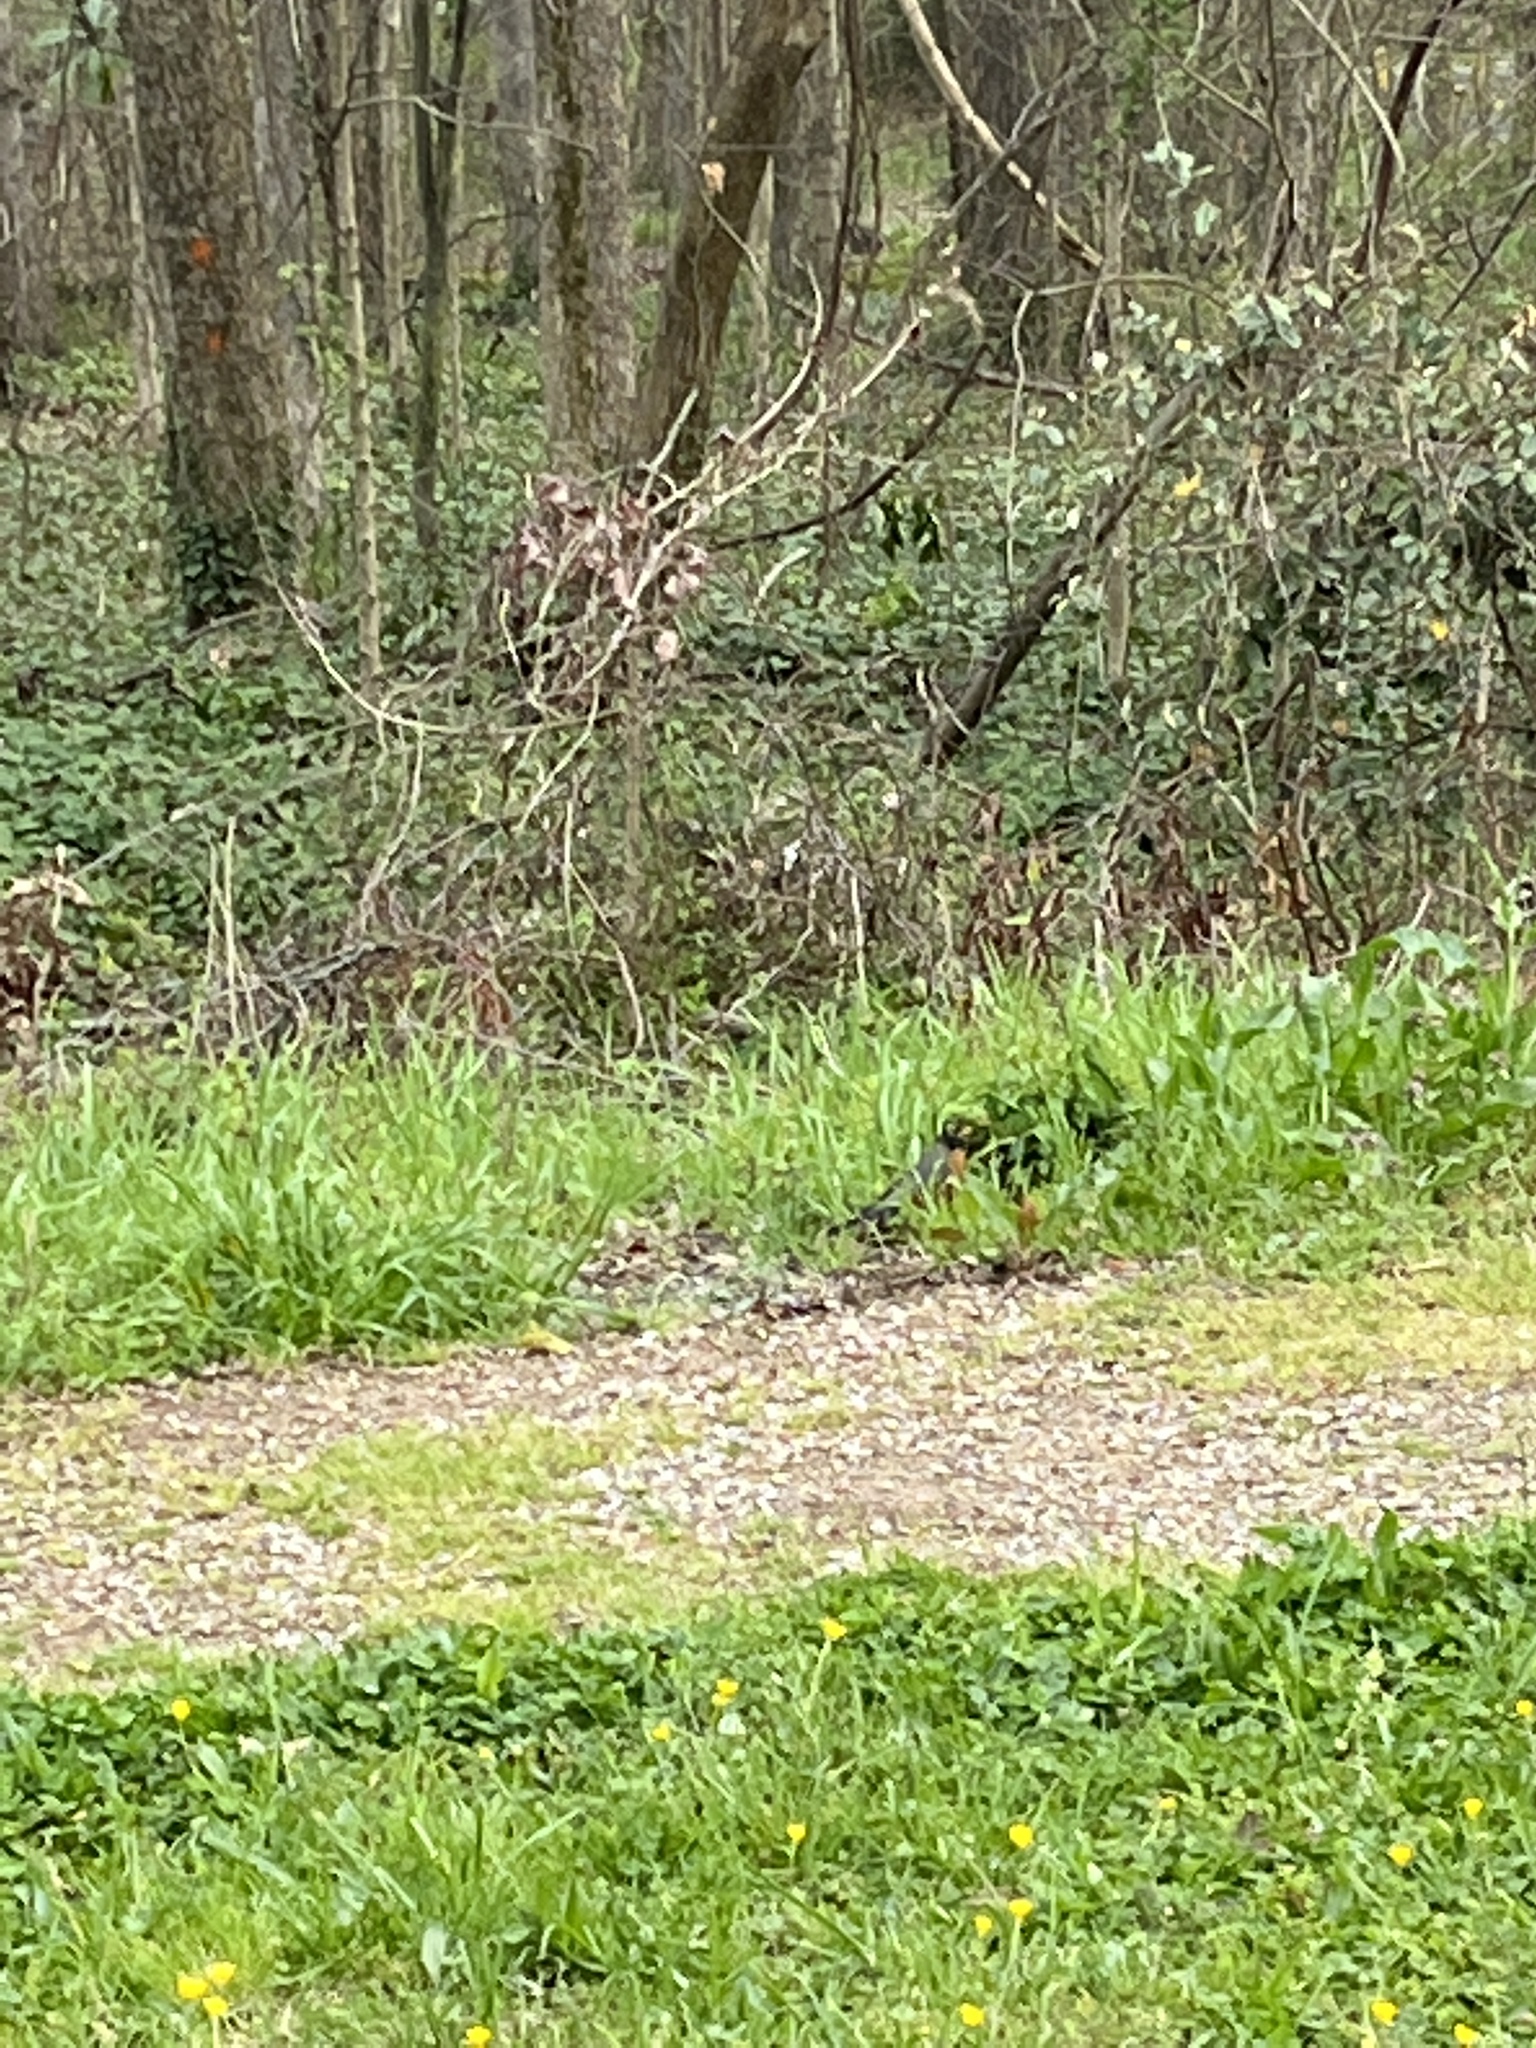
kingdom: Animalia
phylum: Chordata
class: Aves
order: Passeriformes
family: Turdidae
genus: Turdus
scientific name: Turdus migratorius
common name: American robin
